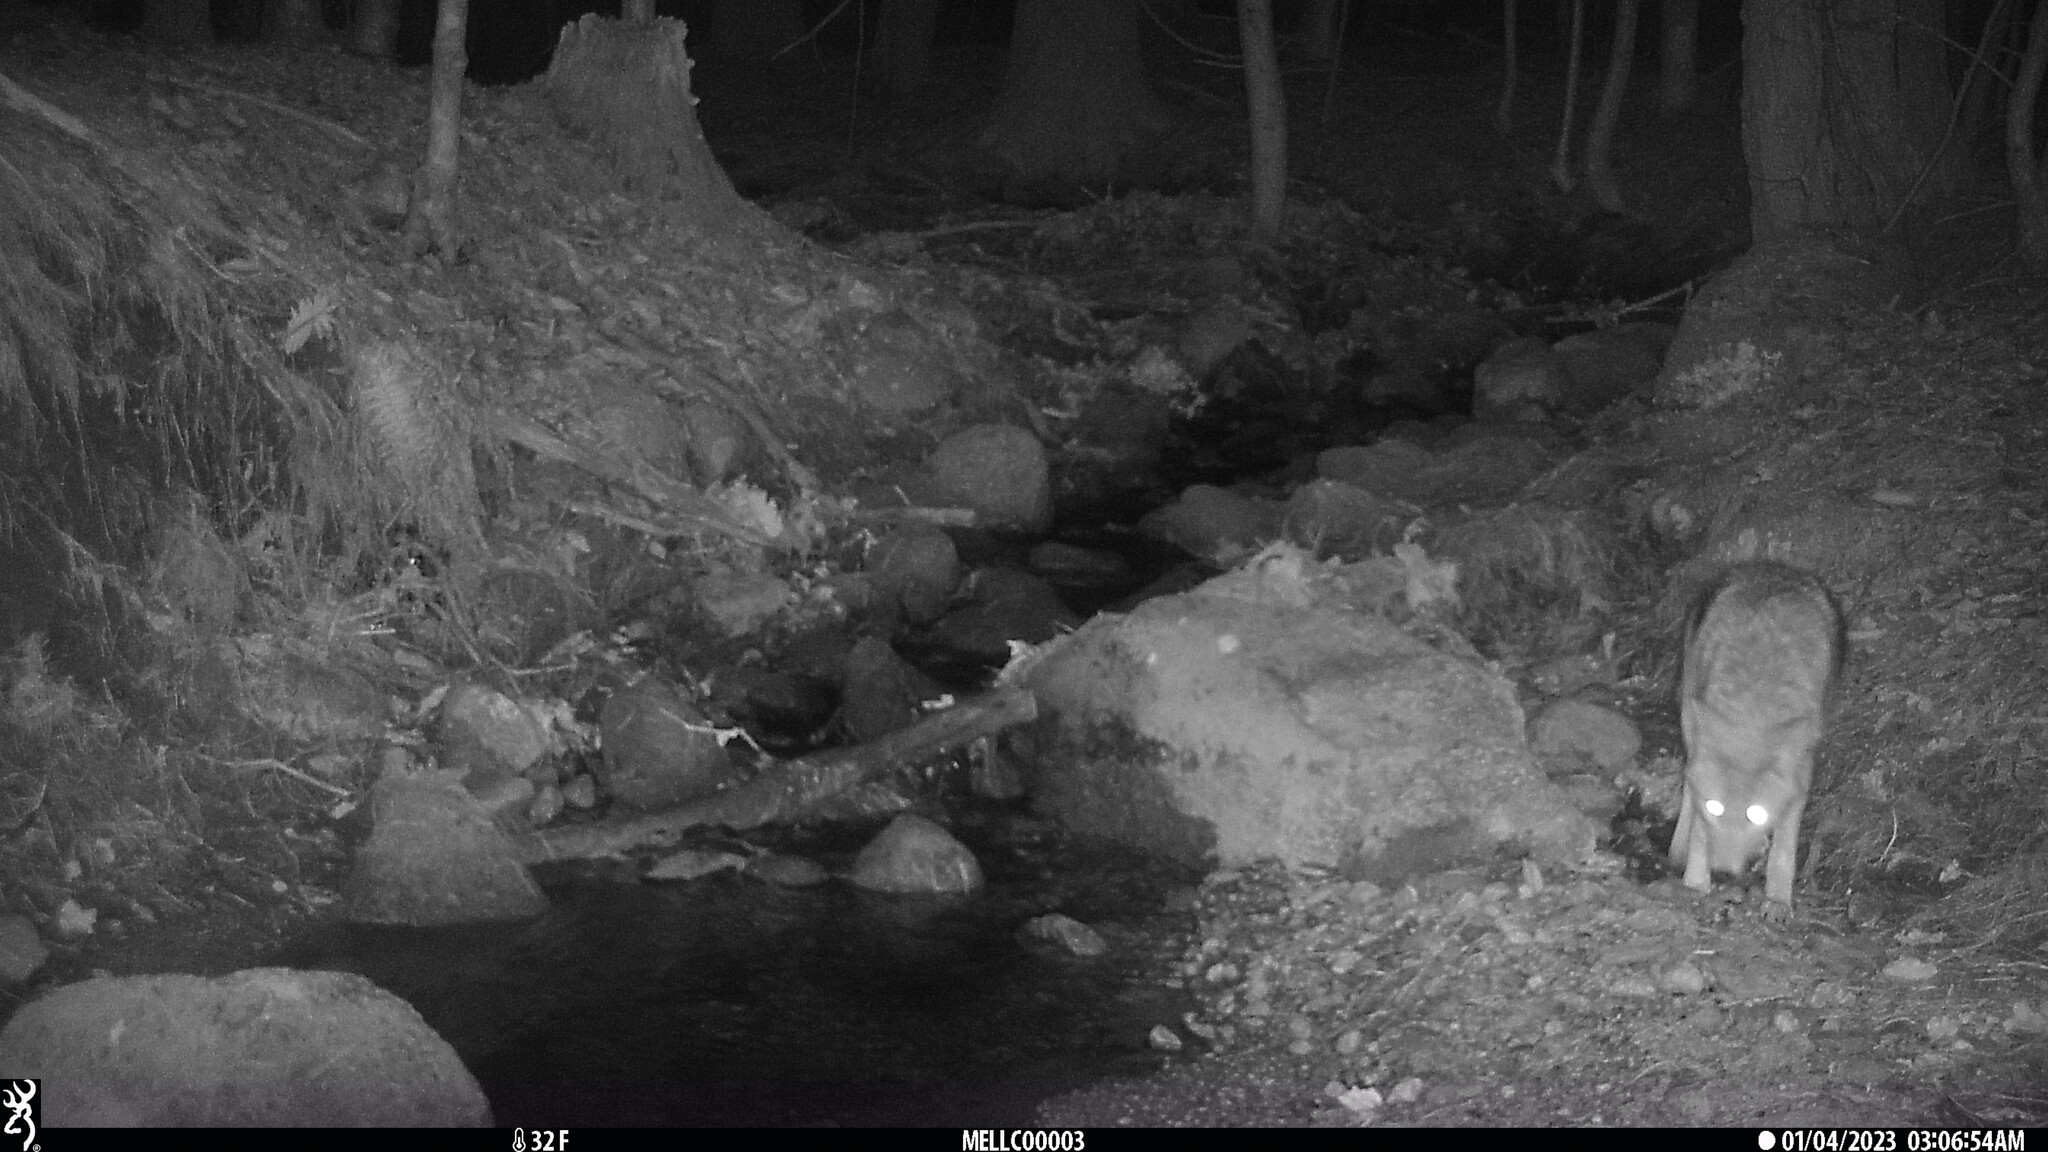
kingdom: Animalia
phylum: Chordata
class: Mammalia
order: Carnivora
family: Canidae
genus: Canis
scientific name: Canis latrans
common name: Coyote
